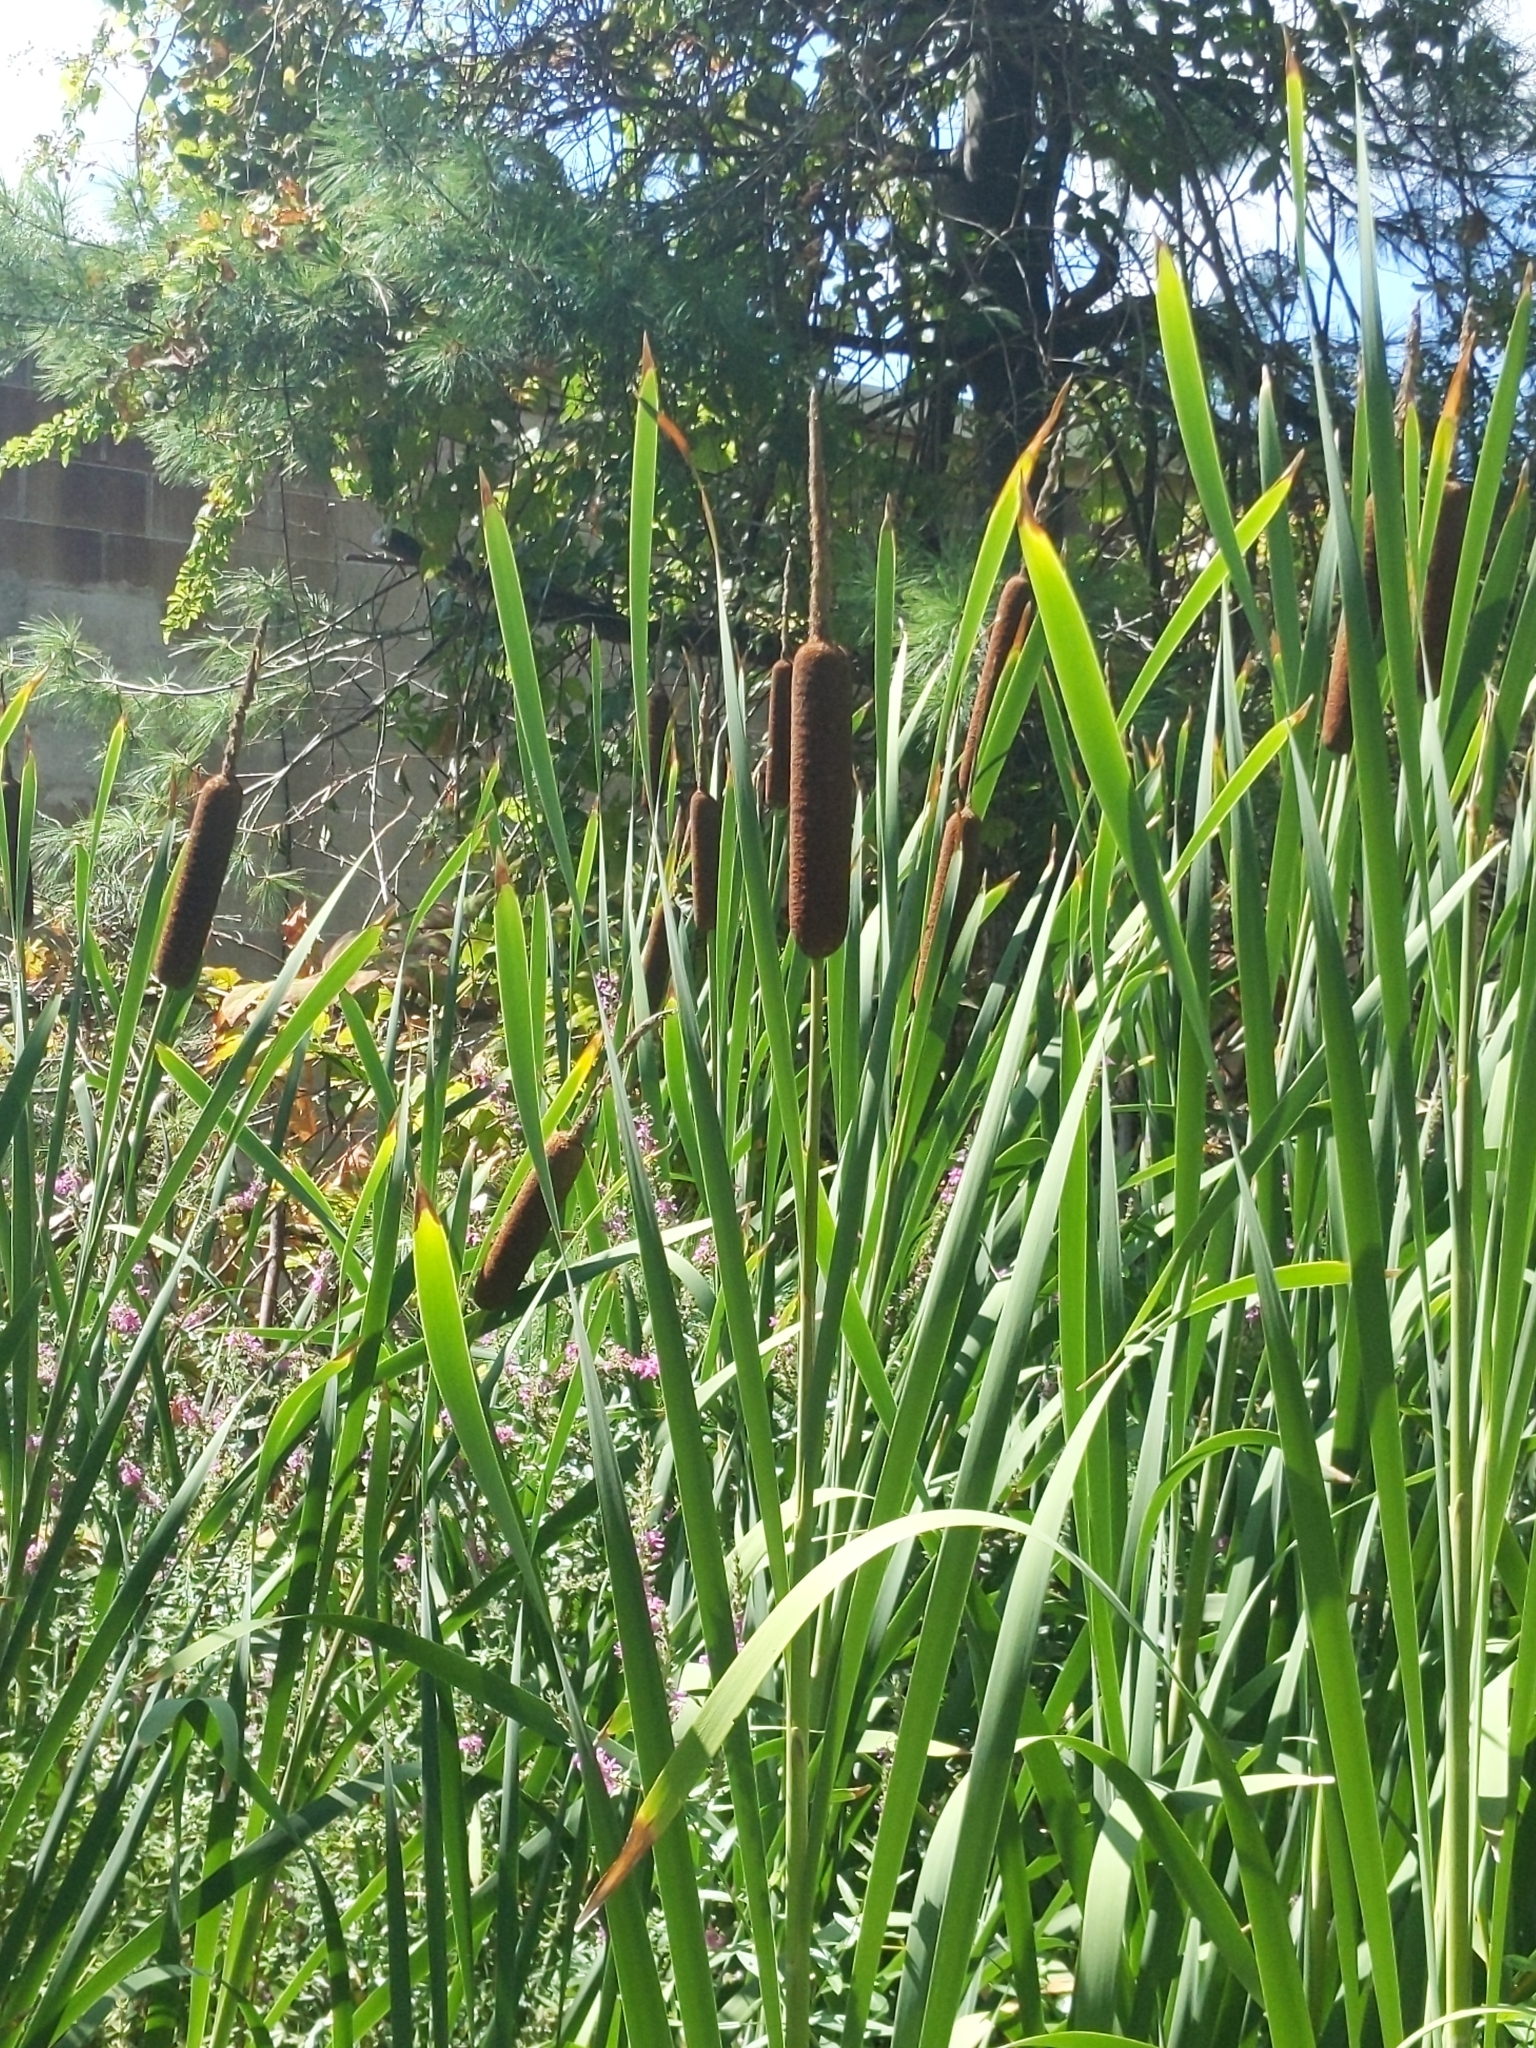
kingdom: Plantae
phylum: Tracheophyta
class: Liliopsida
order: Poales
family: Typhaceae
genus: Typha
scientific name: Typha latifolia
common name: Broadleaf cattail
